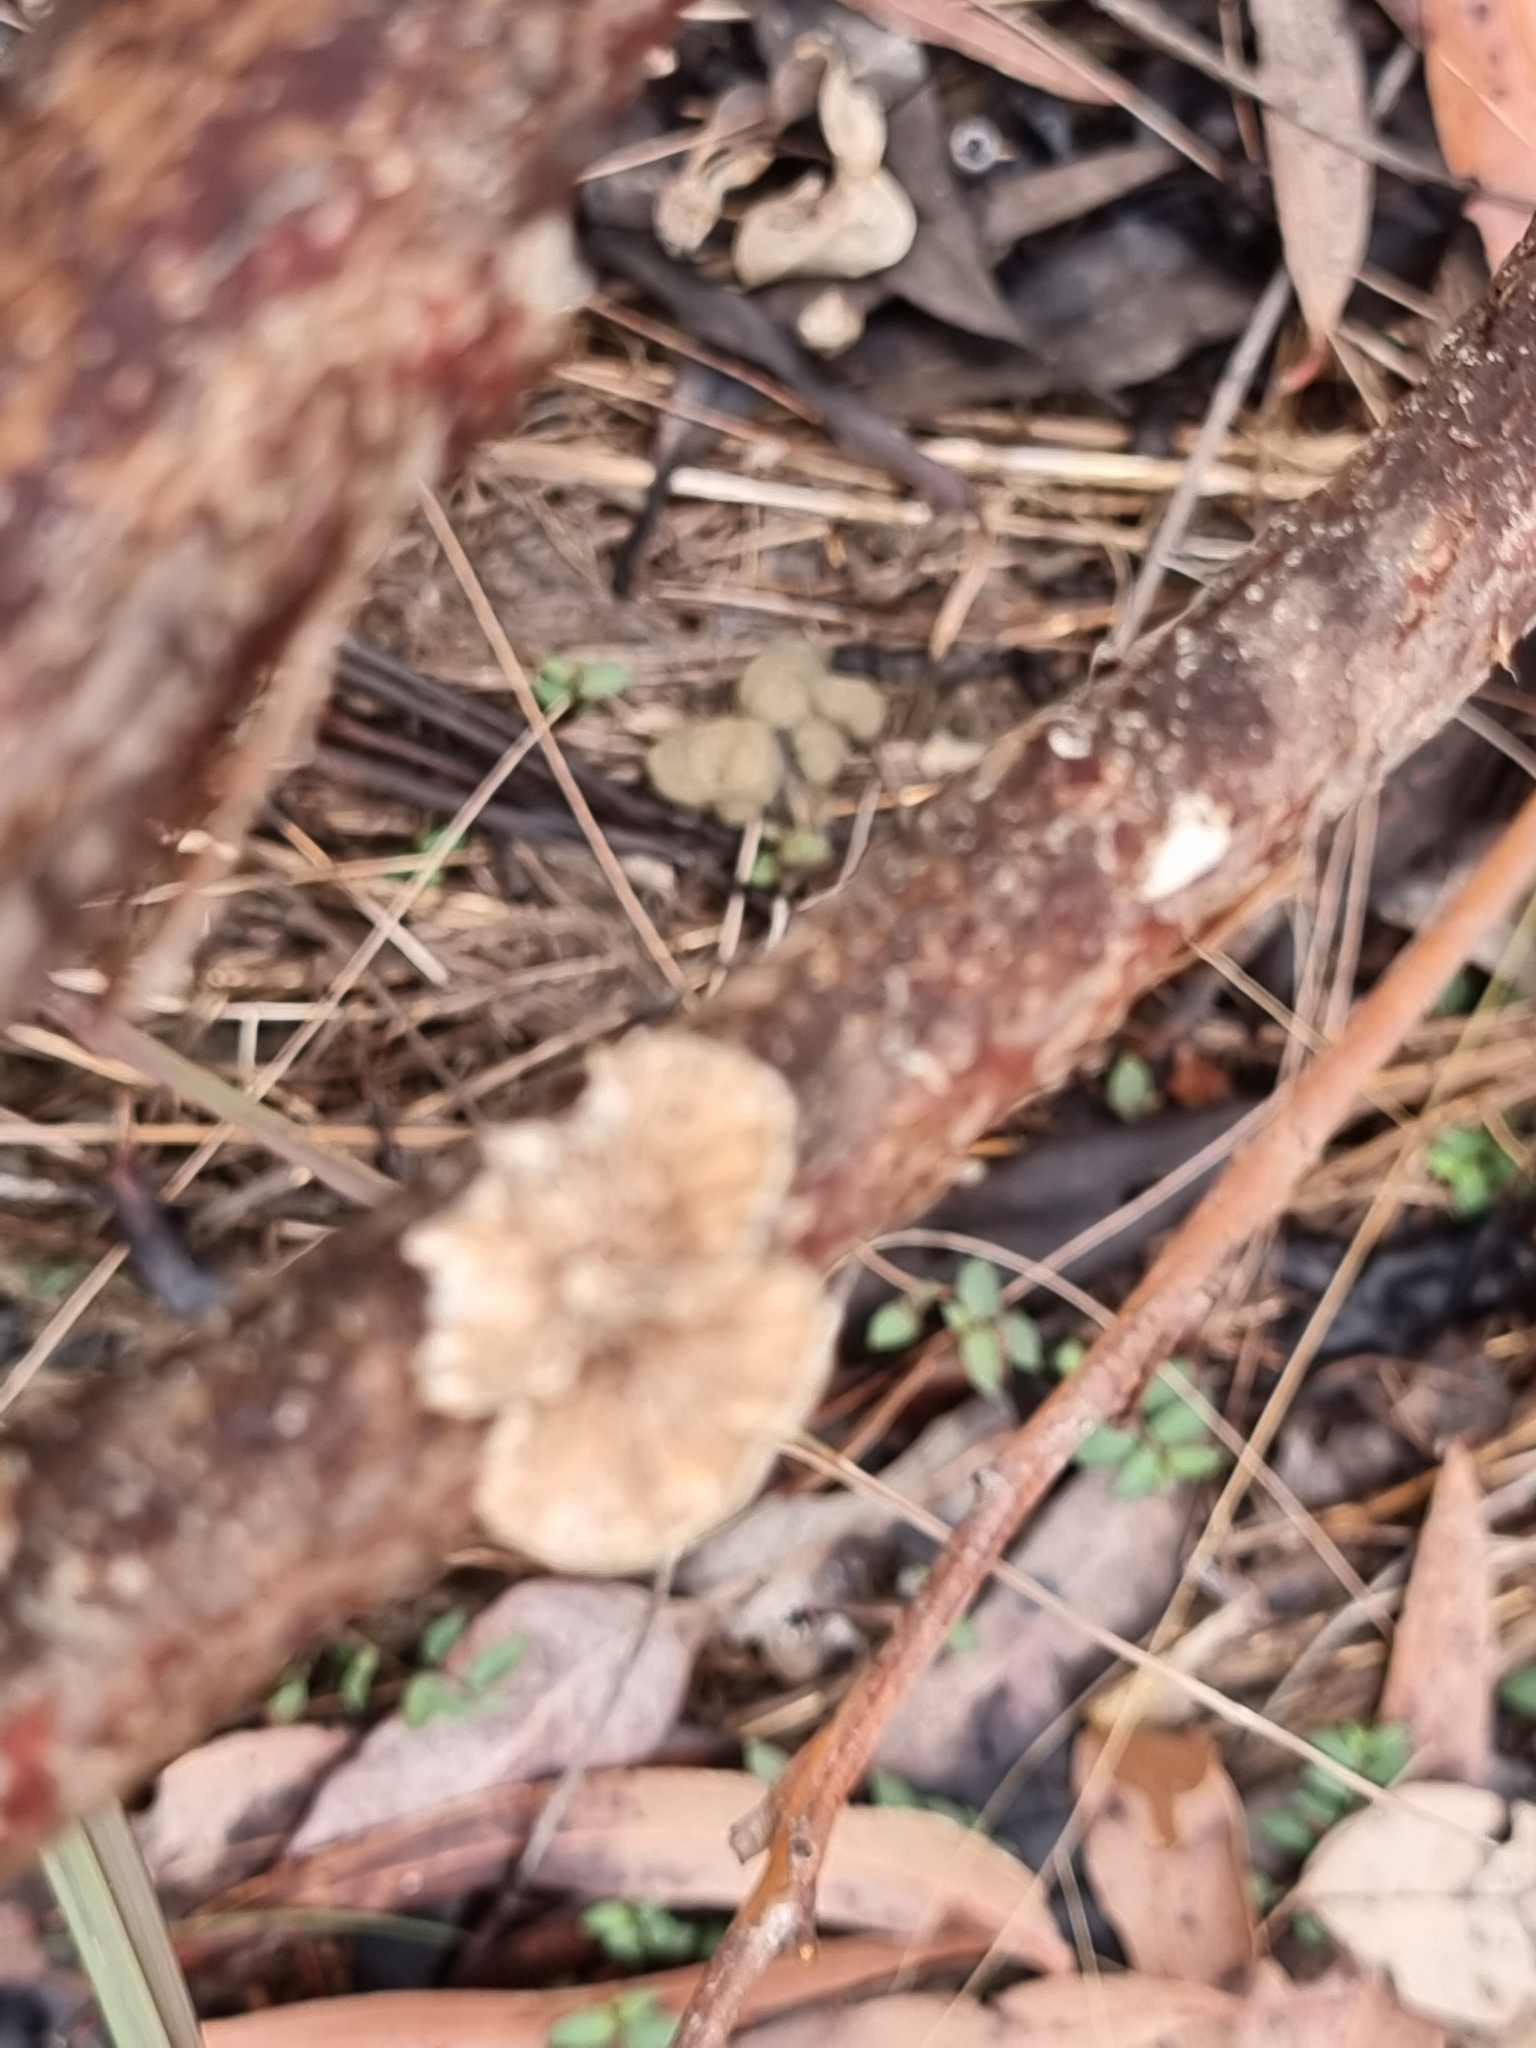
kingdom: Fungi
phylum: Basidiomycota
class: Agaricomycetes
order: Agaricales
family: Schizophyllaceae
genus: Schizophyllum
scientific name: Schizophyllum commune
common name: Common porecrust
